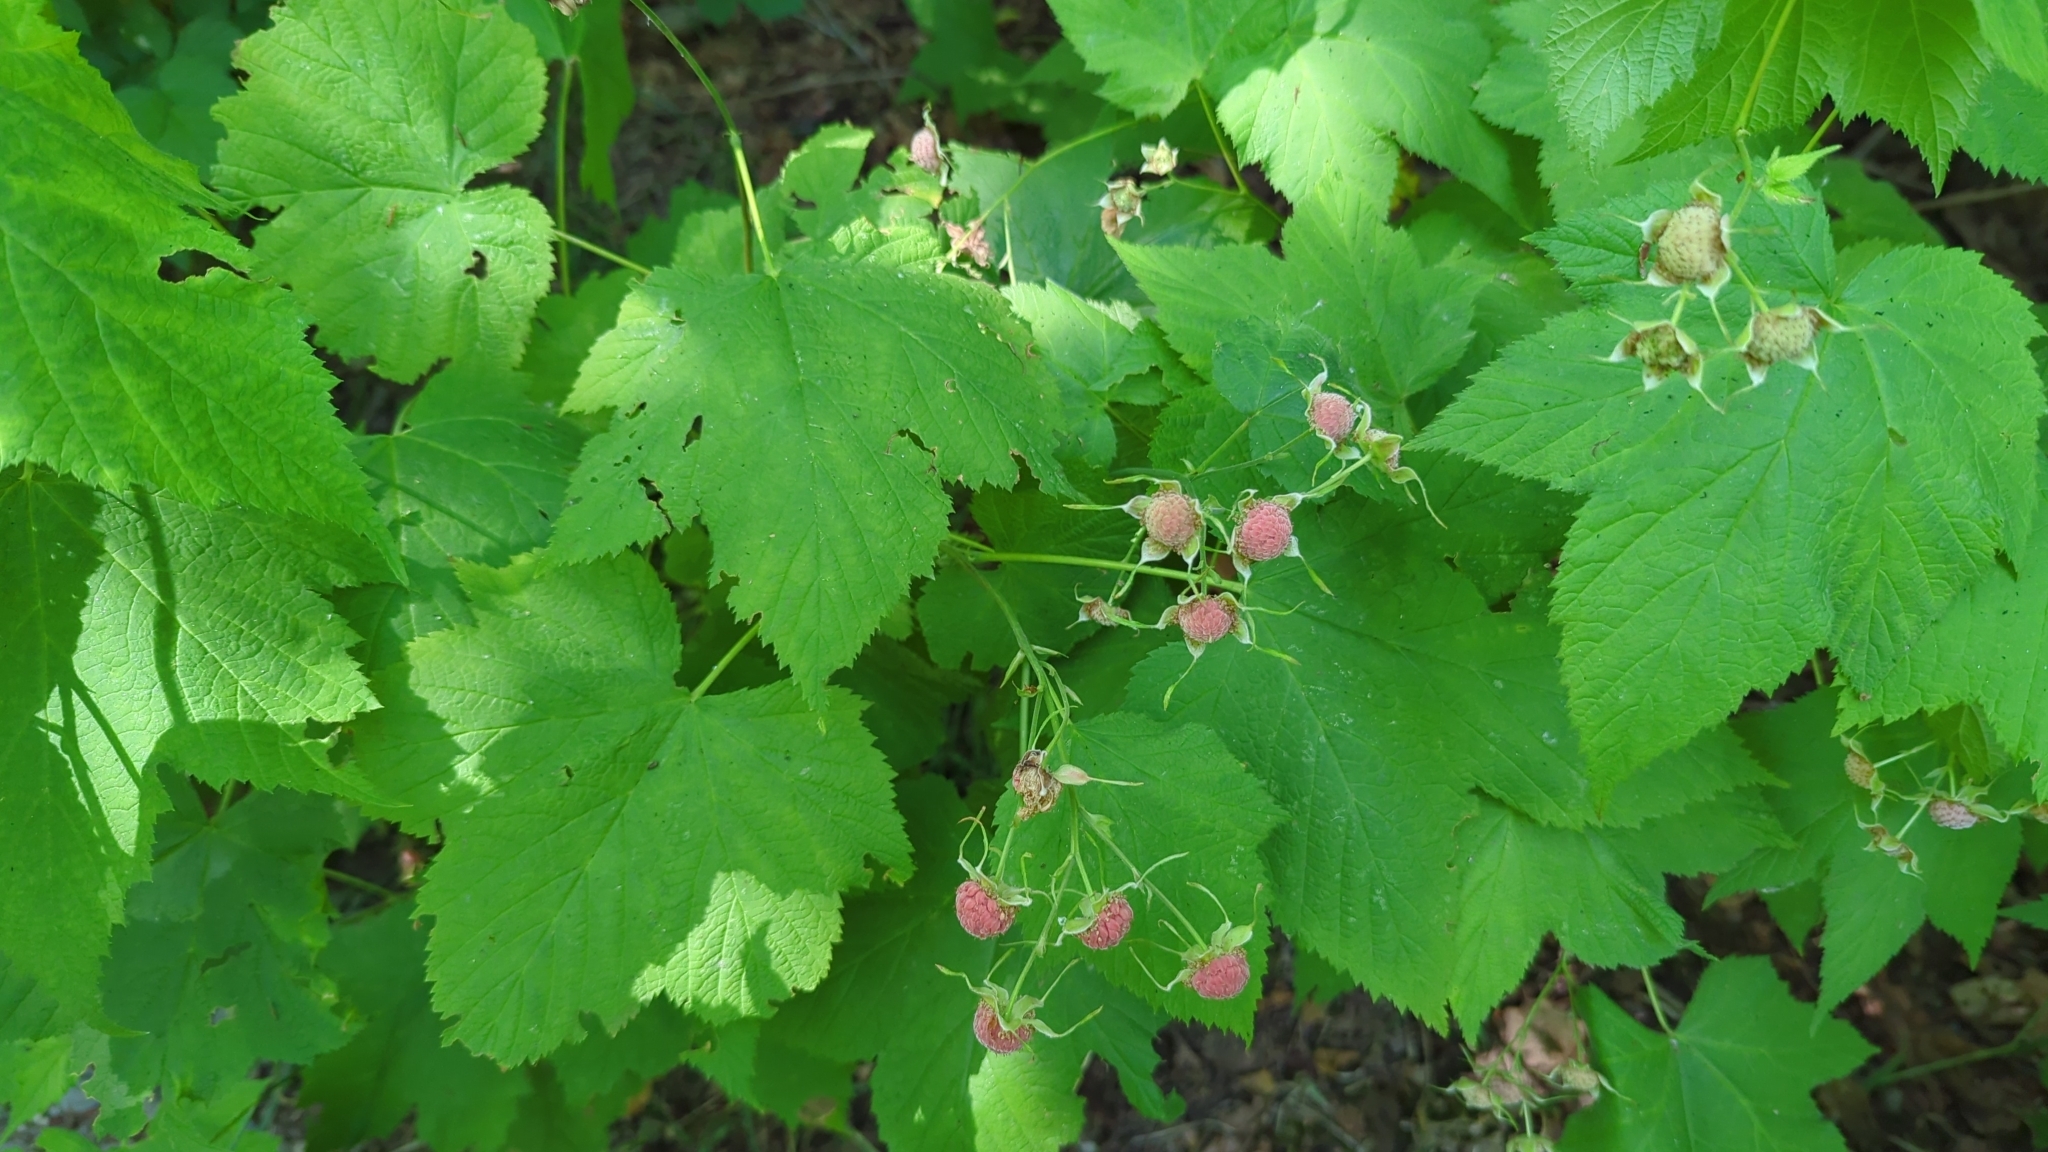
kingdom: Plantae
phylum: Tracheophyta
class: Magnoliopsida
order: Rosales
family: Rosaceae
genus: Rubus
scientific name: Rubus parviflorus
